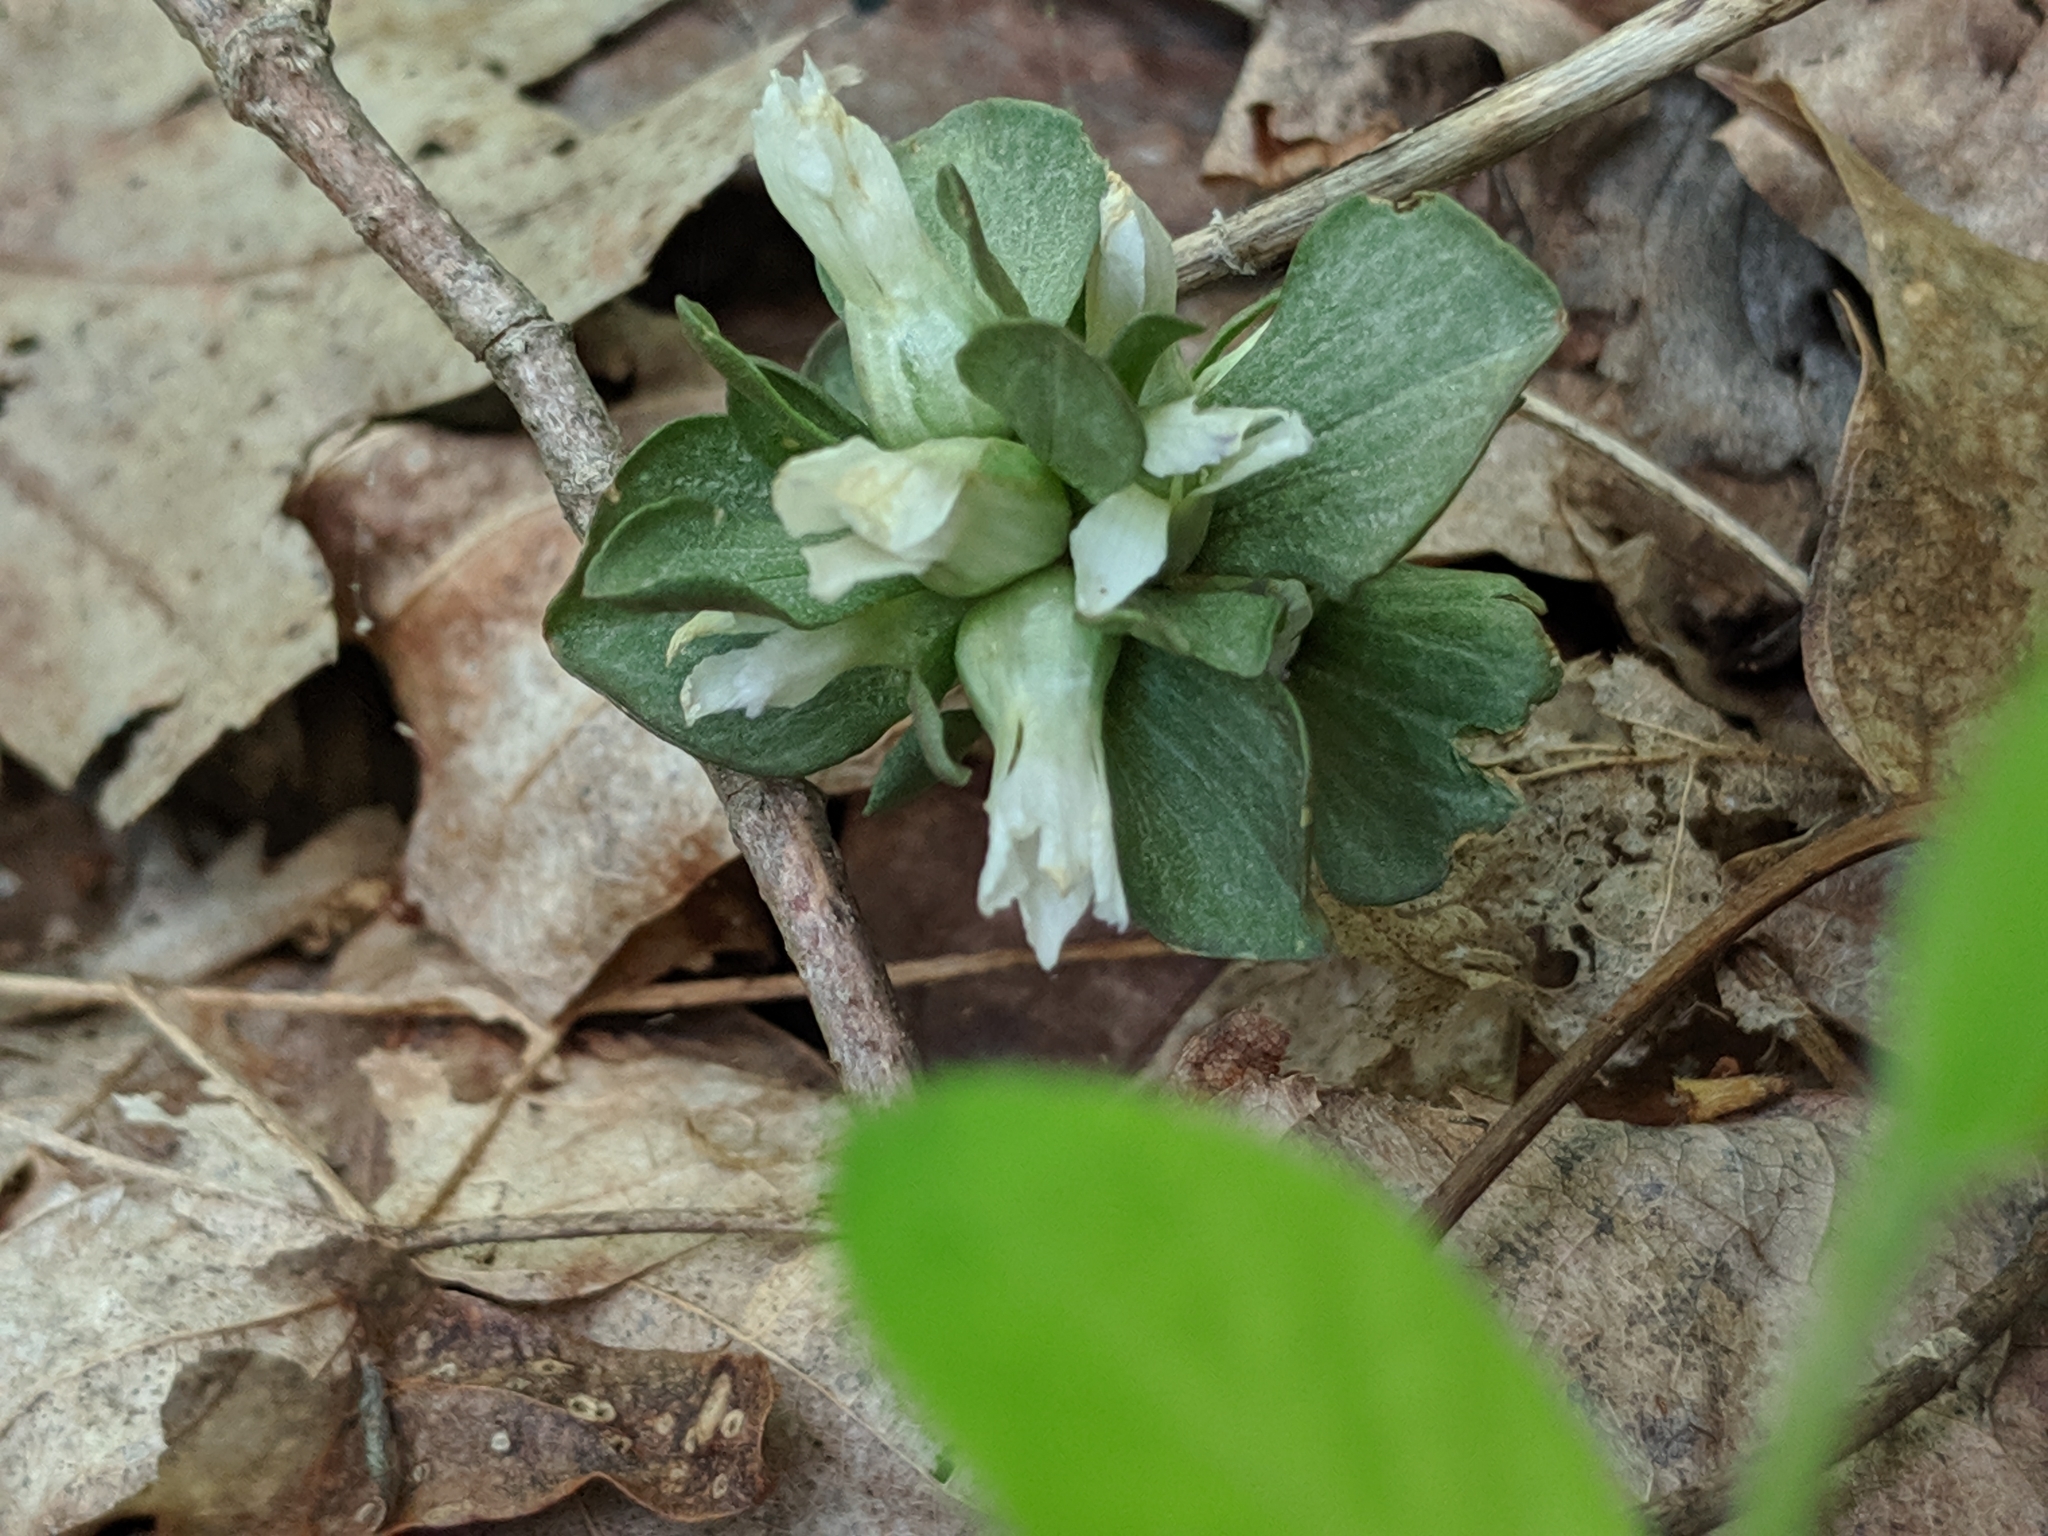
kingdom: Plantae
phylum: Tracheophyta
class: Magnoliopsida
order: Gentianales
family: Gentianaceae
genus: Obolaria
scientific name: Obolaria virginica
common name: Pennywort
